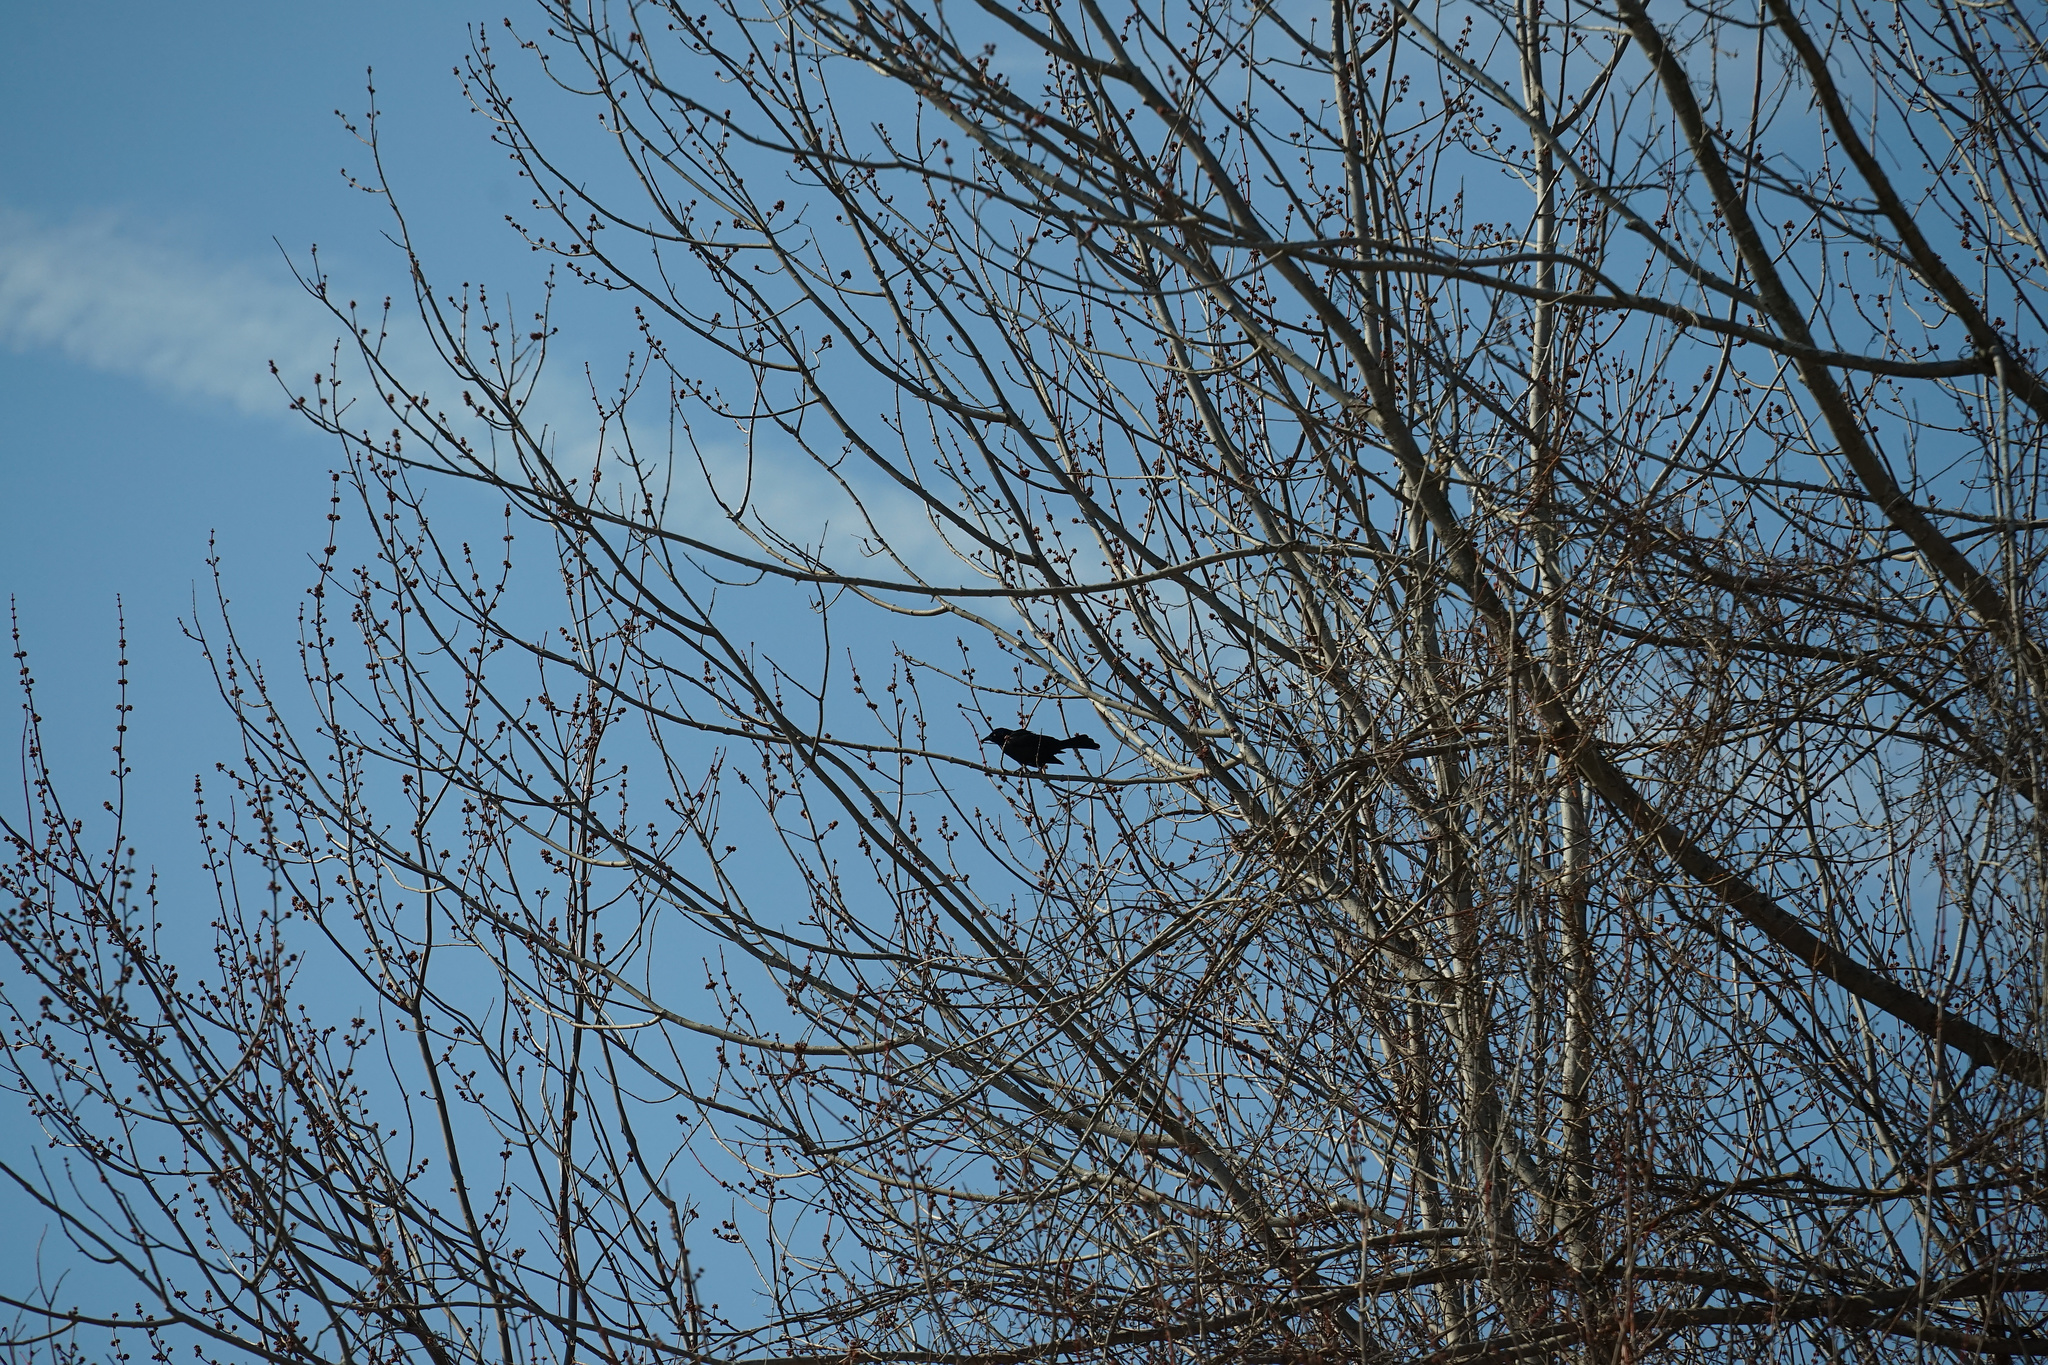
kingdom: Animalia
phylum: Chordata
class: Aves
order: Passeriformes
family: Icteridae
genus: Quiscalus
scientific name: Quiscalus quiscula
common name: Common grackle
